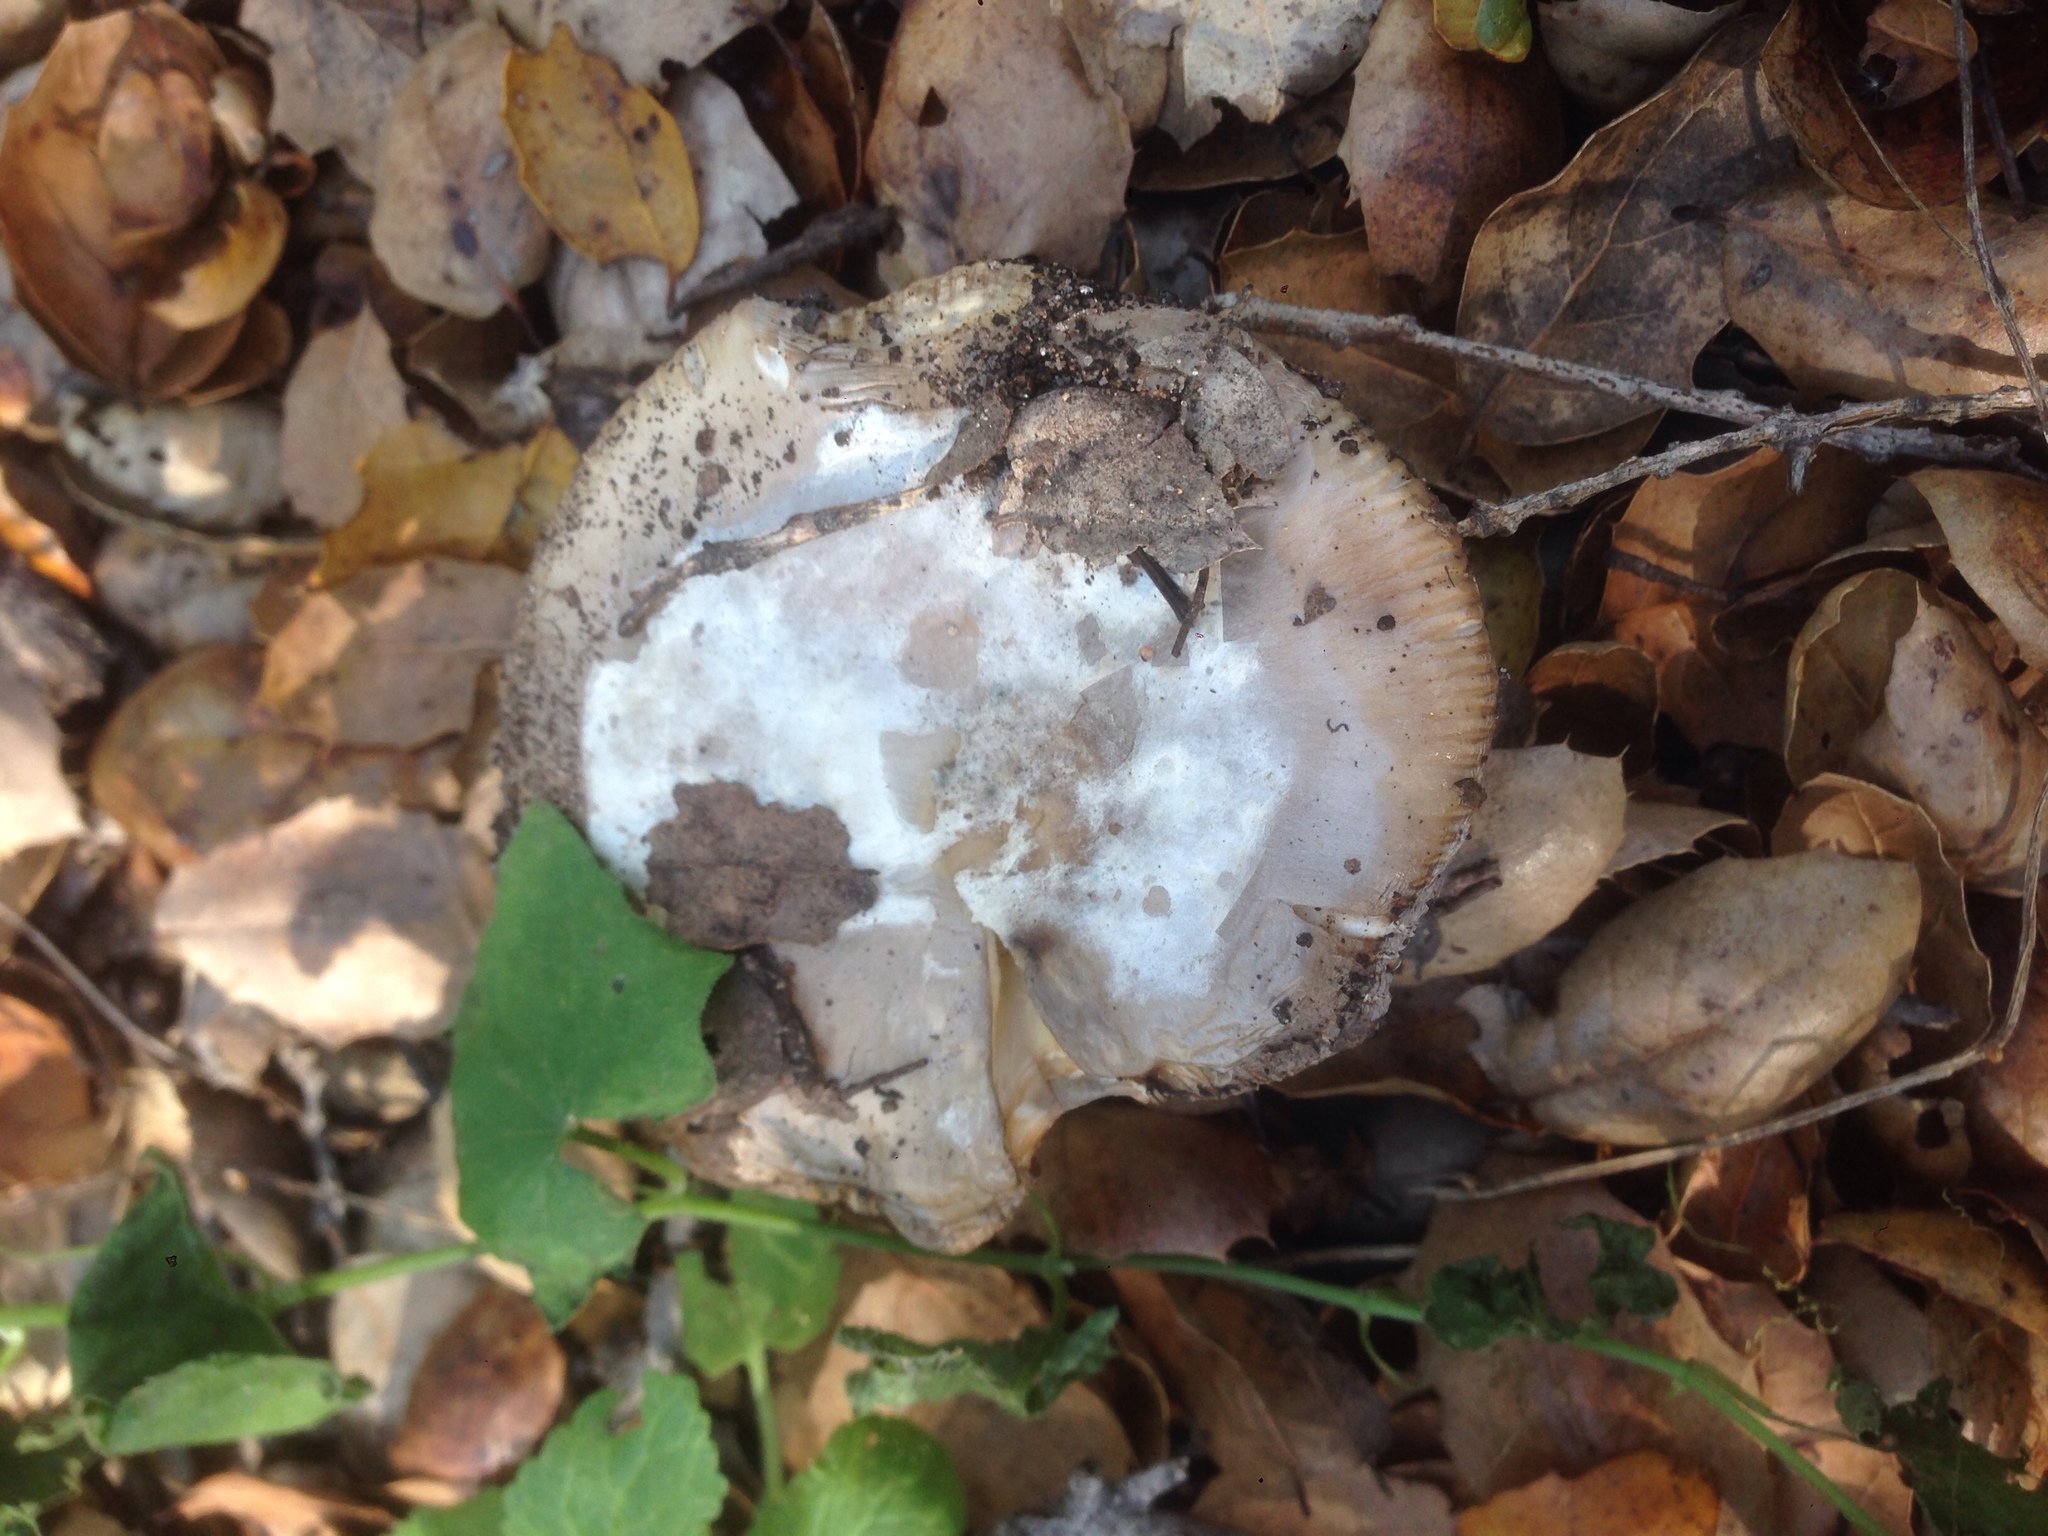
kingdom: Fungi
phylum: Basidiomycota
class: Agaricomycetes
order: Agaricales
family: Amanitaceae
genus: Amanita
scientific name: Amanita velosa
